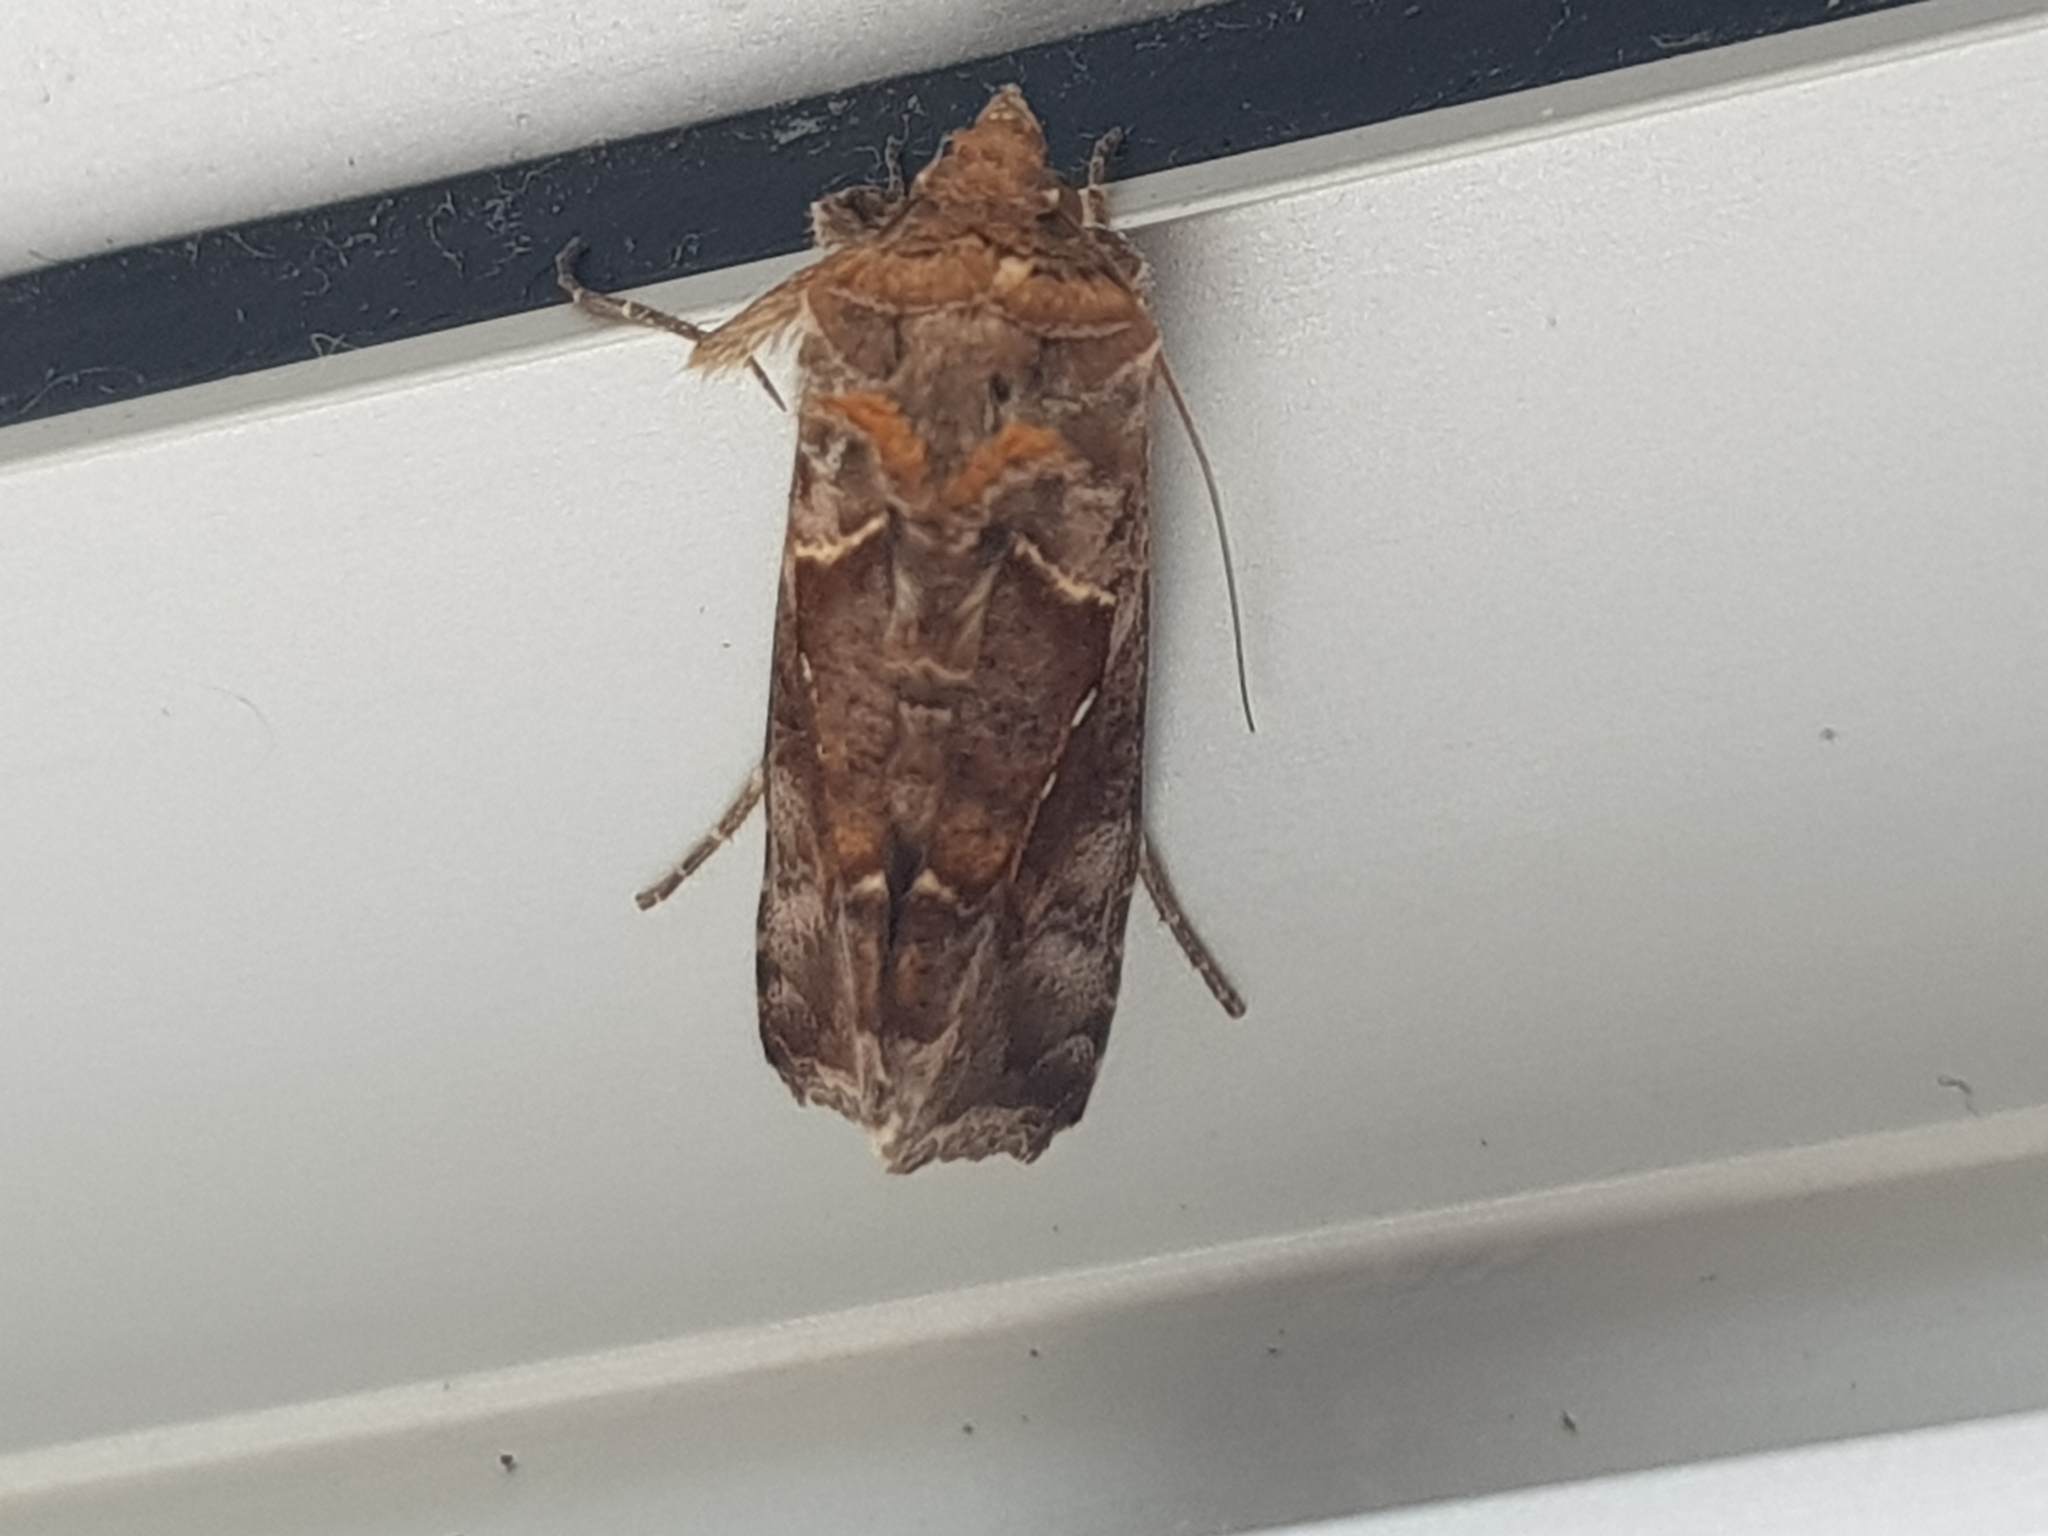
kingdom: Animalia
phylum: Arthropoda
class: Insecta
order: Lepidoptera
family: Noctuidae
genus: Chrysodeixis
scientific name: Chrysodeixis eriosoma
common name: Green garden looper
